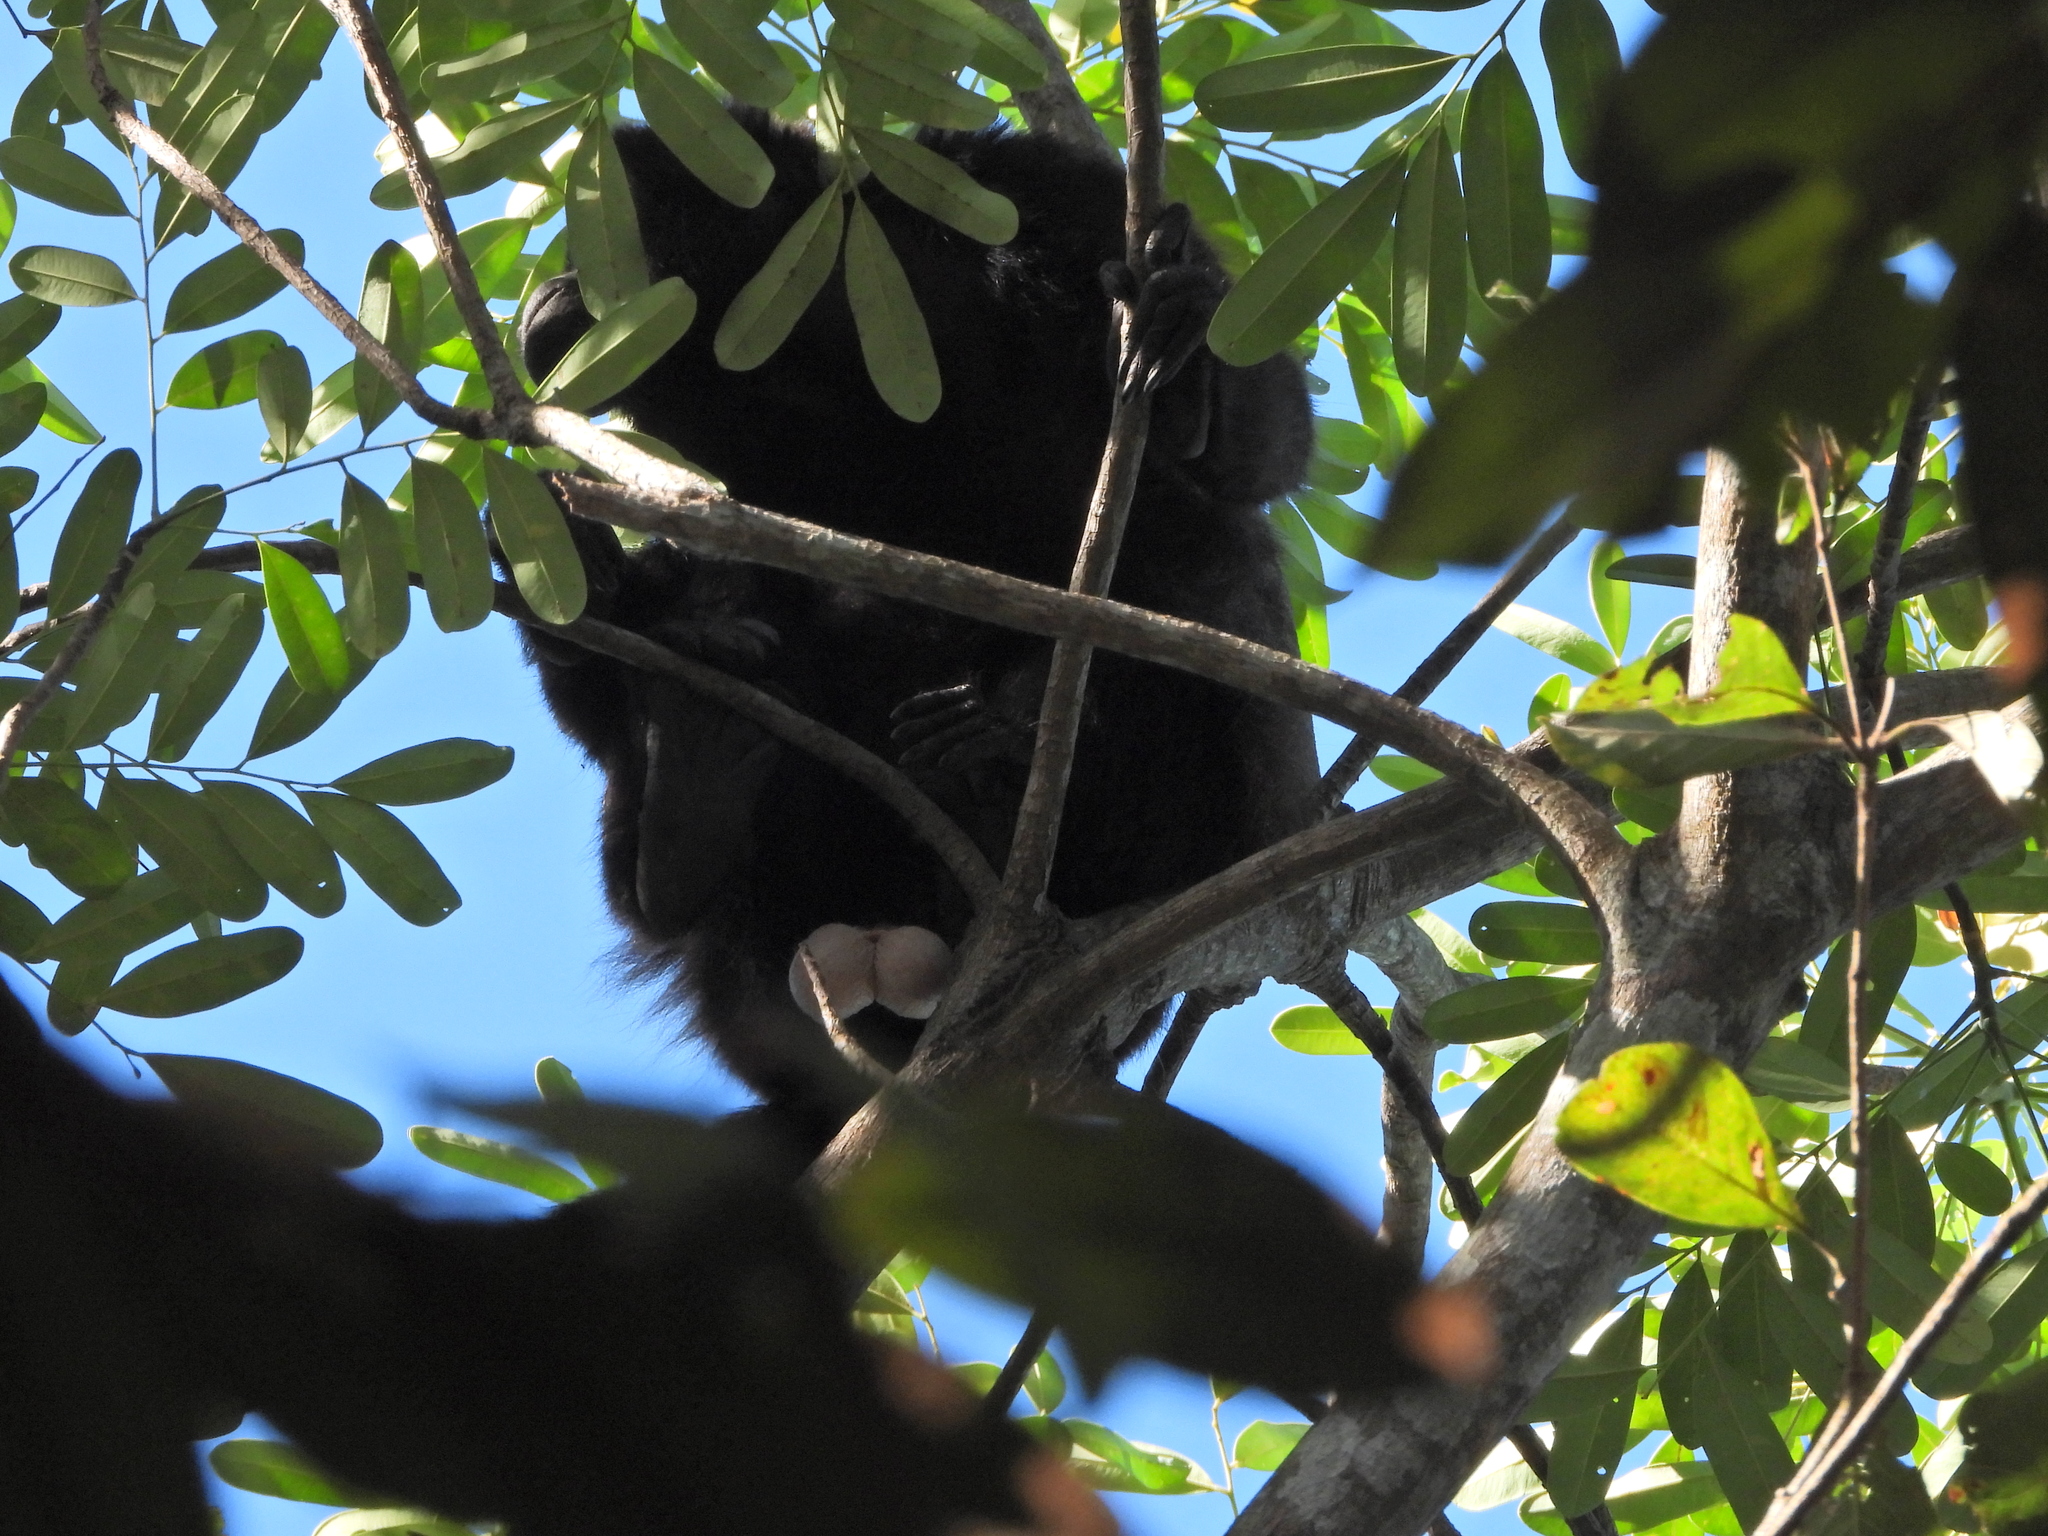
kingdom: Animalia
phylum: Chordata
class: Mammalia
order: Primates
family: Atelidae
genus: Alouatta
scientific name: Alouatta palliata
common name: Mantled howler
